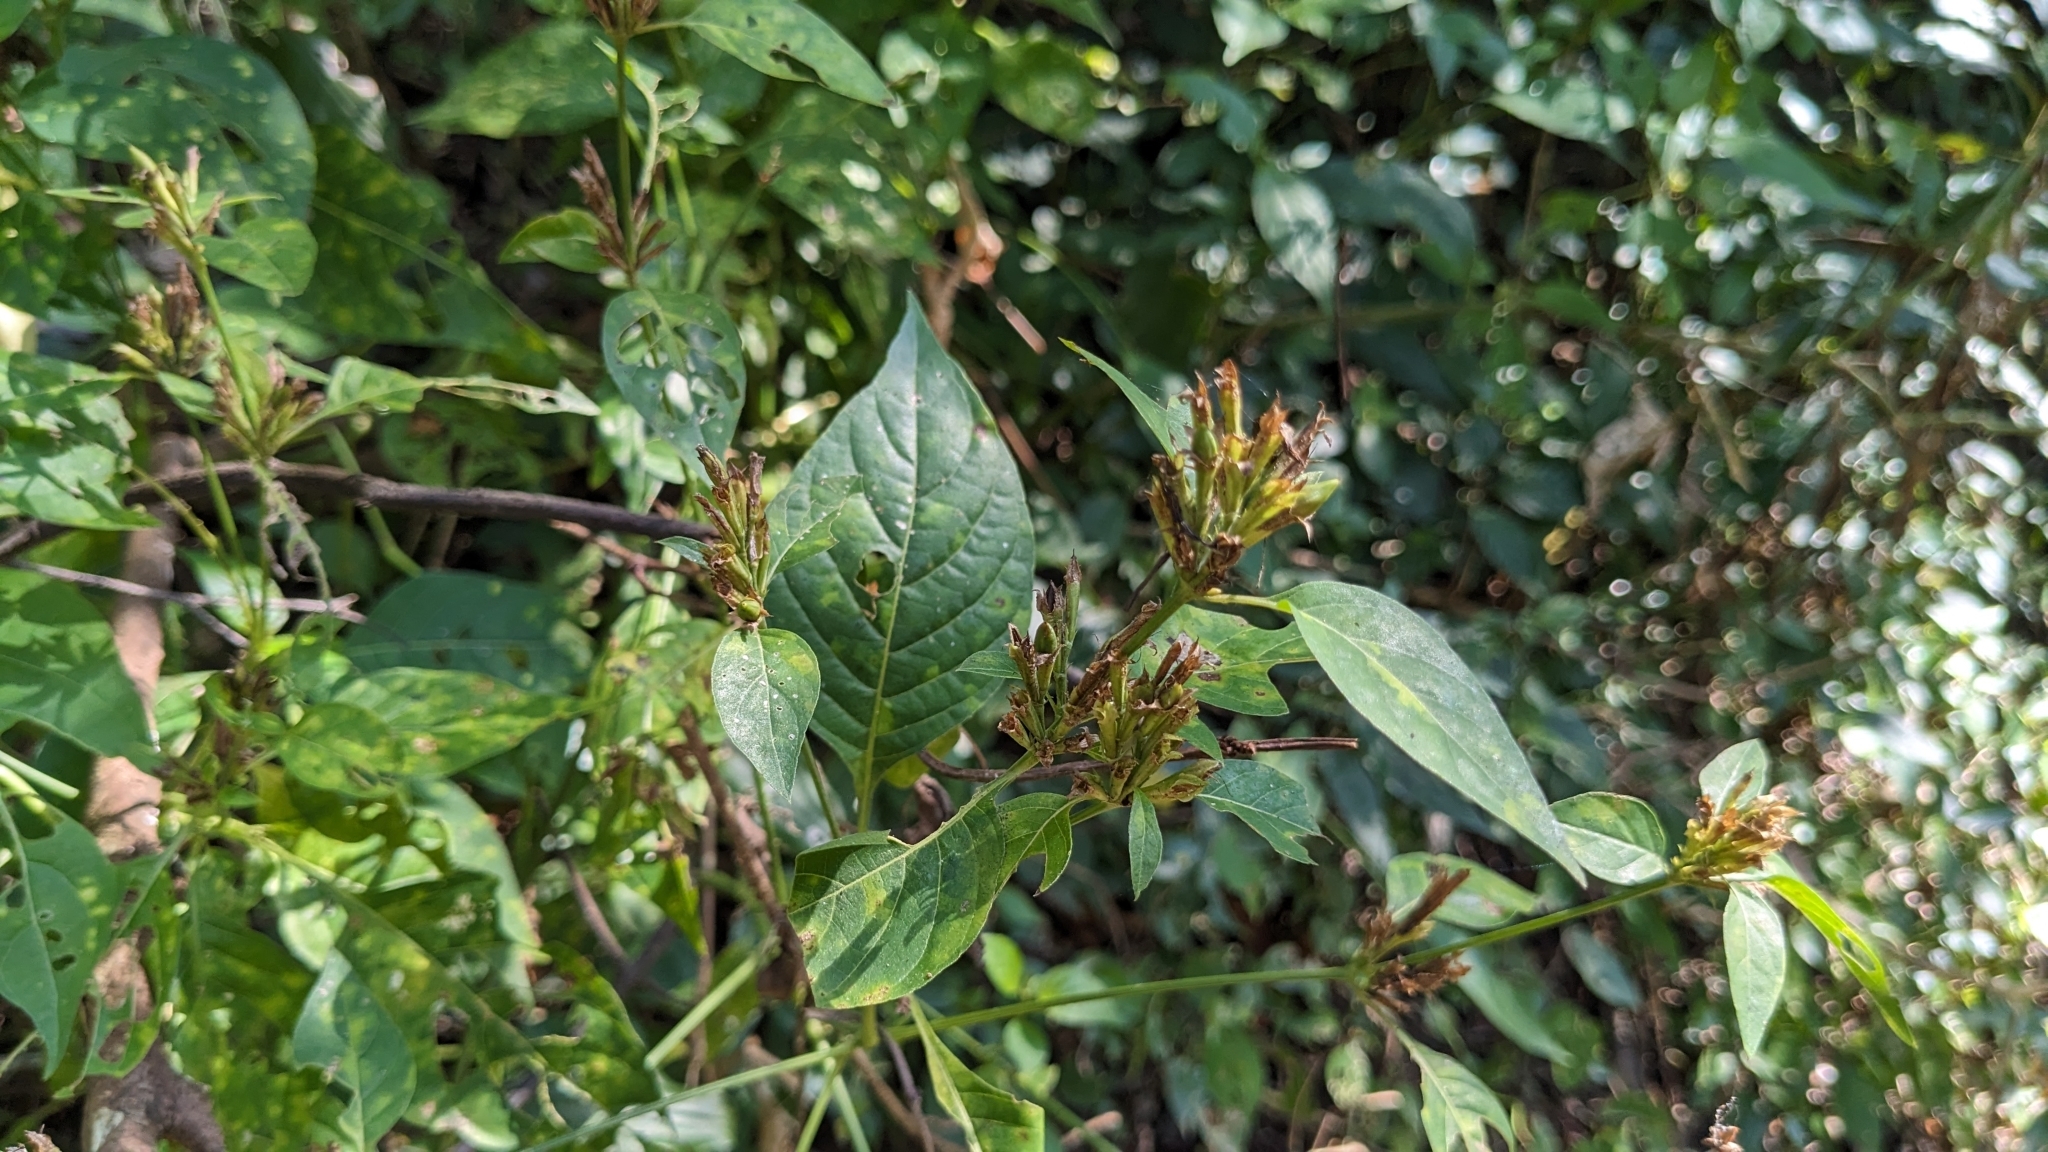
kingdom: Plantae
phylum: Tracheophyta
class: Magnoliopsida
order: Lamiales
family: Acanthaceae
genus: Hypoestes
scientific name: Hypoestes purpurea
